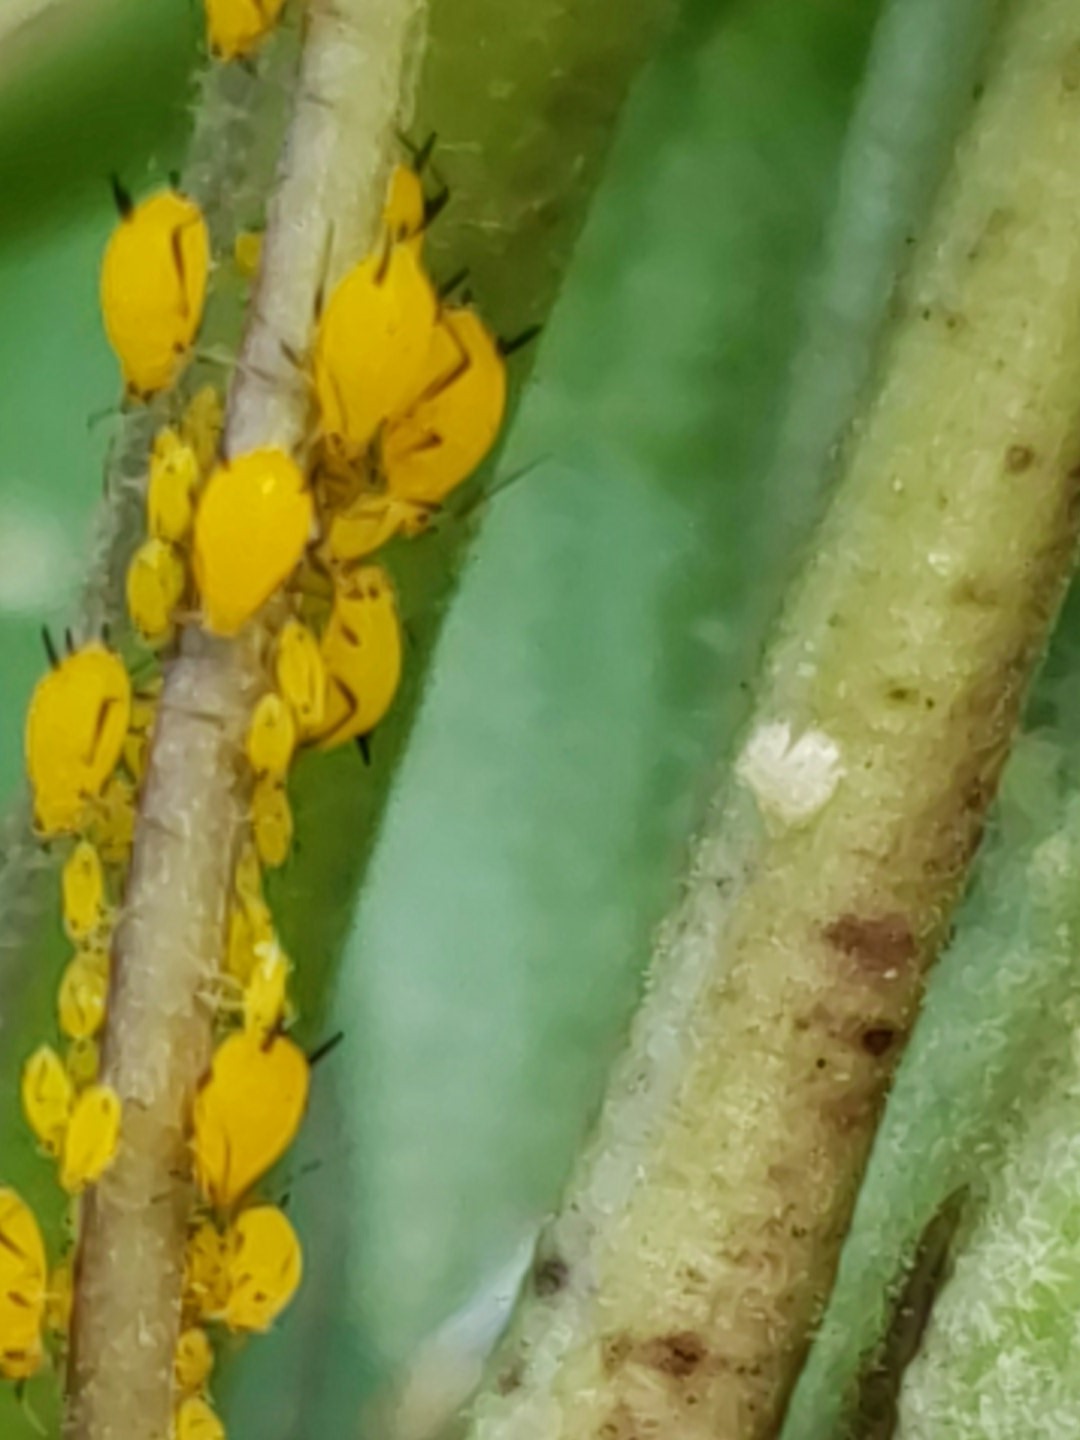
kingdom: Animalia
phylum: Arthropoda
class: Insecta
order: Hemiptera
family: Aphididae
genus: Aphis
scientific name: Aphis nerii
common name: Oleander aphid
